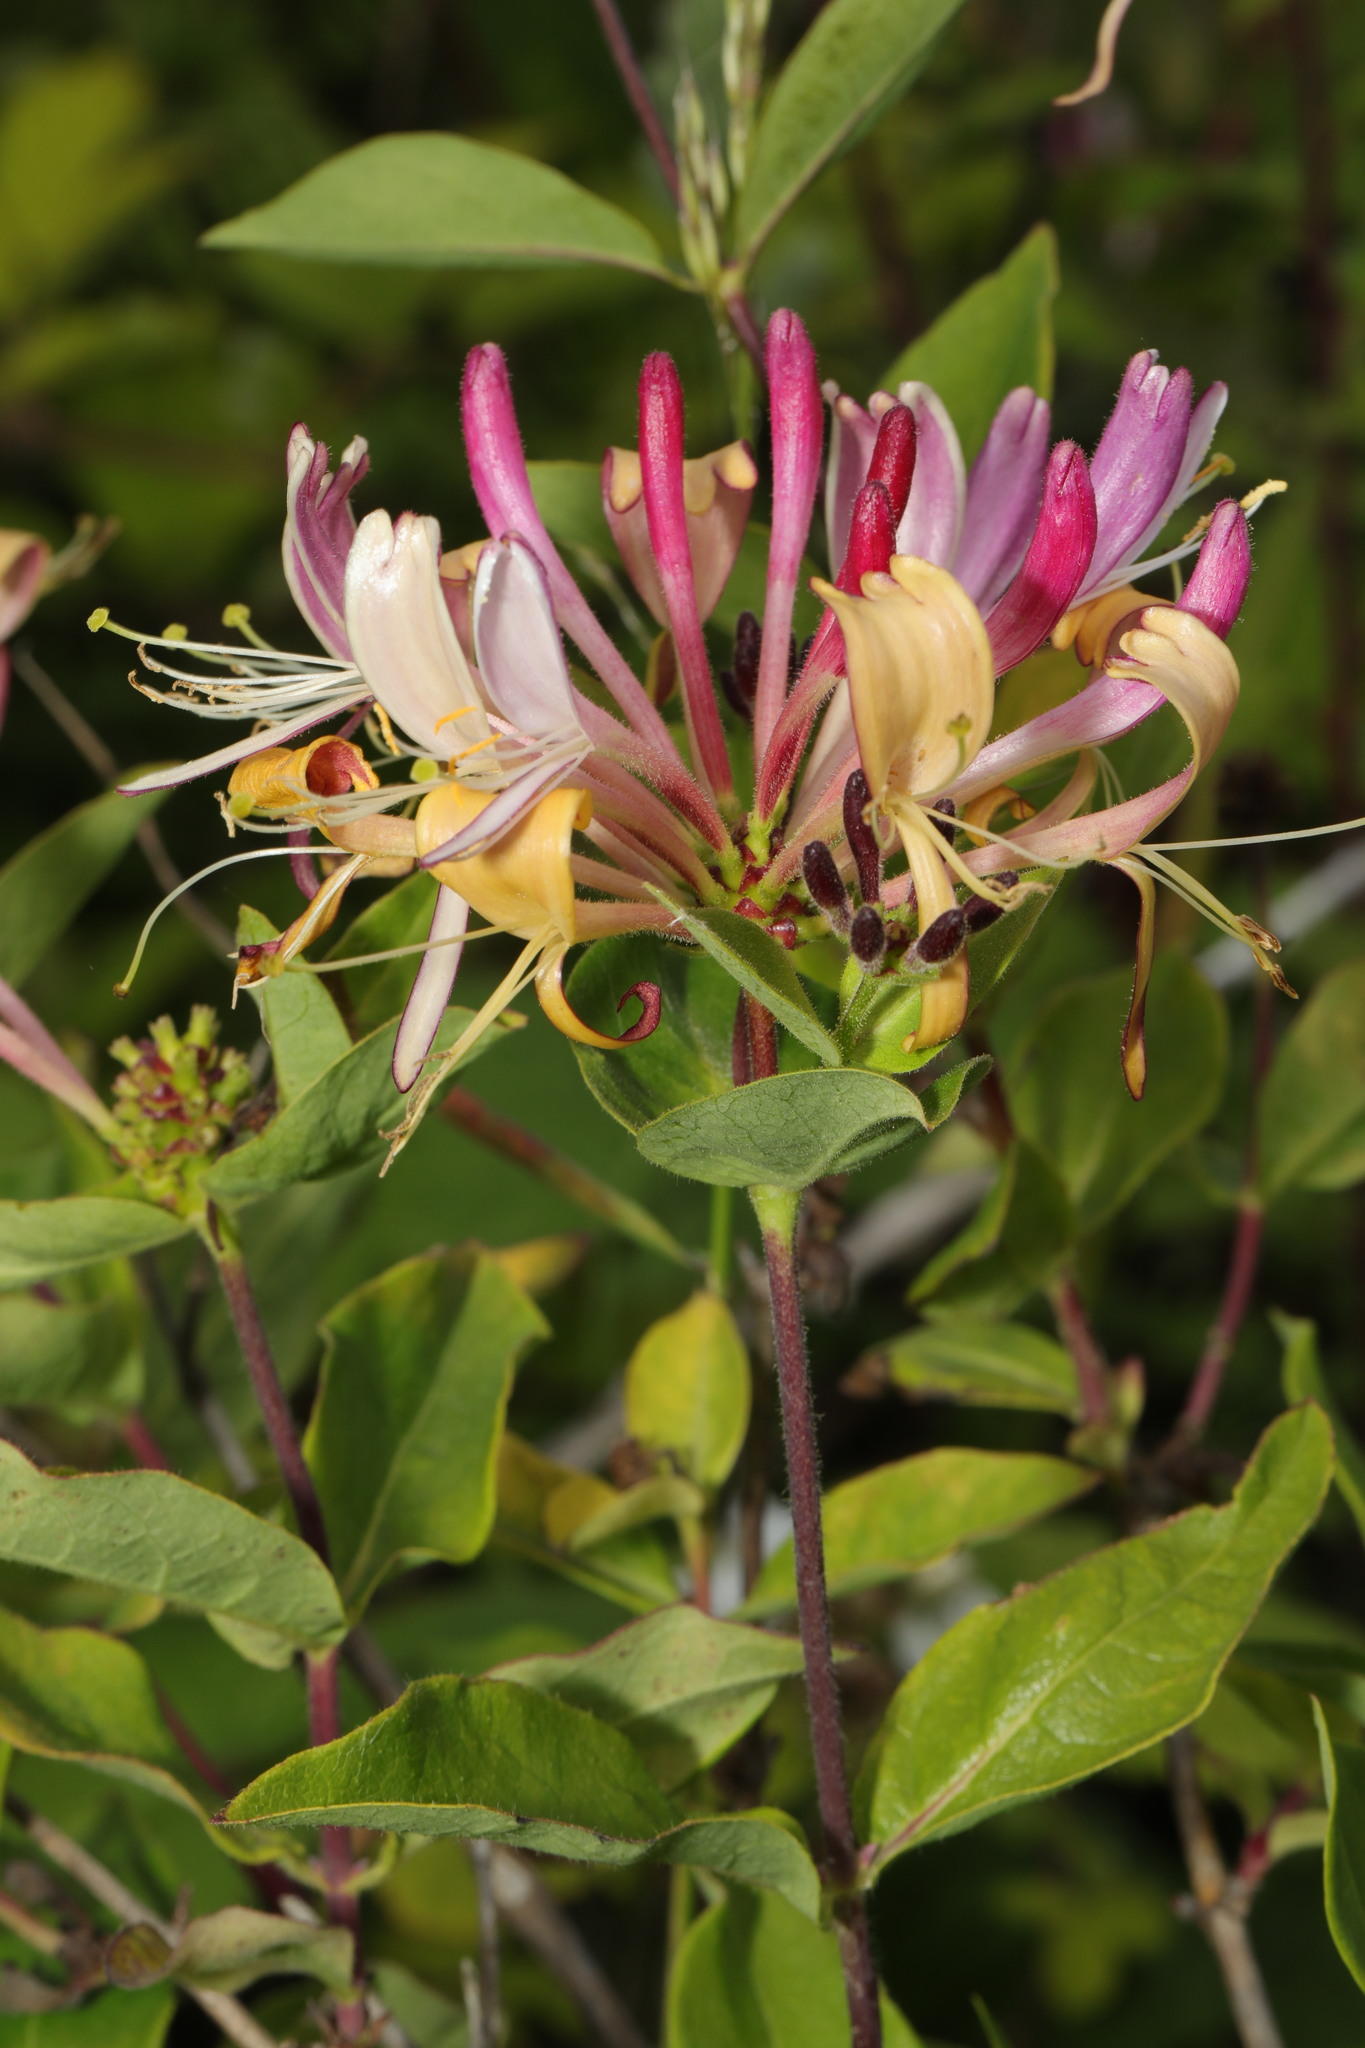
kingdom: Plantae
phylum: Tracheophyta
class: Magnoliopsida
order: Dipsacales
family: Caprifoliaceae
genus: Lonicera
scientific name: Lonicera periclymenum
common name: European honeysuckle
